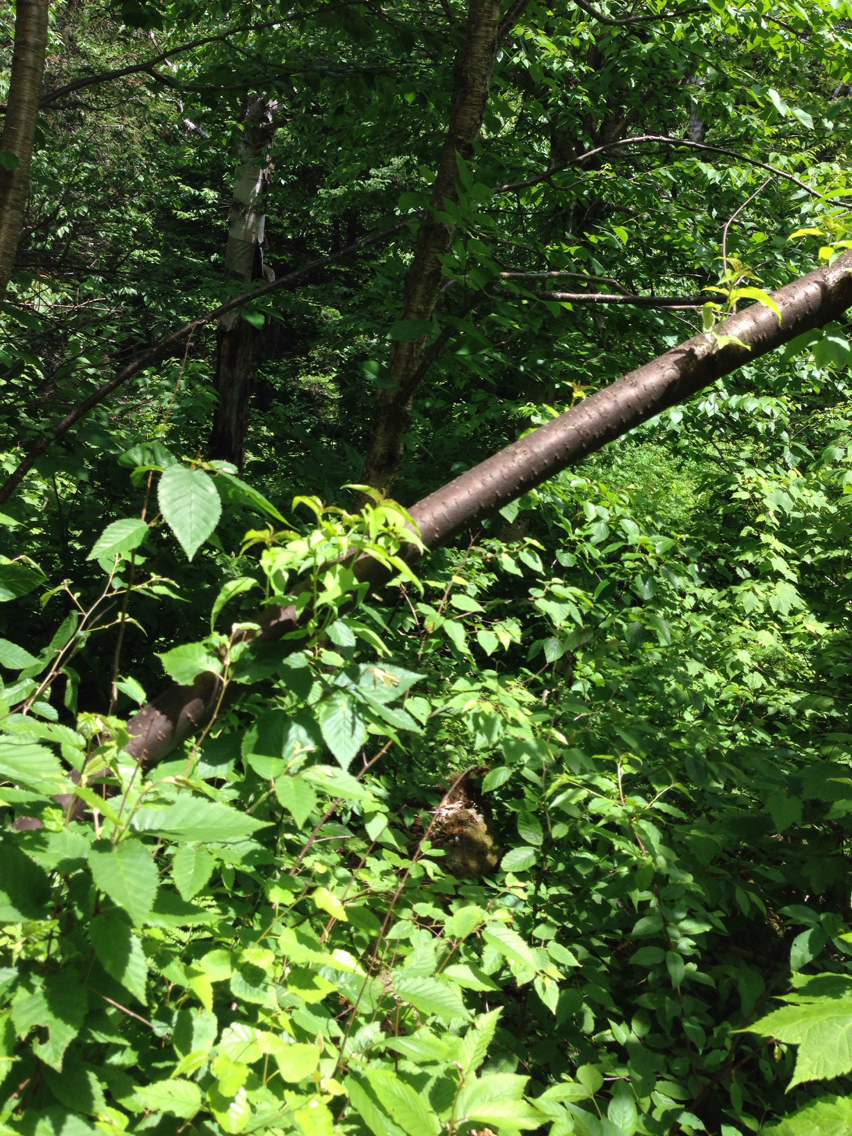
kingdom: Plantae
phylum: Tracheophyta
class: Magnoliopsida
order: Rosales
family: Rosaceae
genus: Prunus
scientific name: Prunus pensylvanica
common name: Pin cherry
